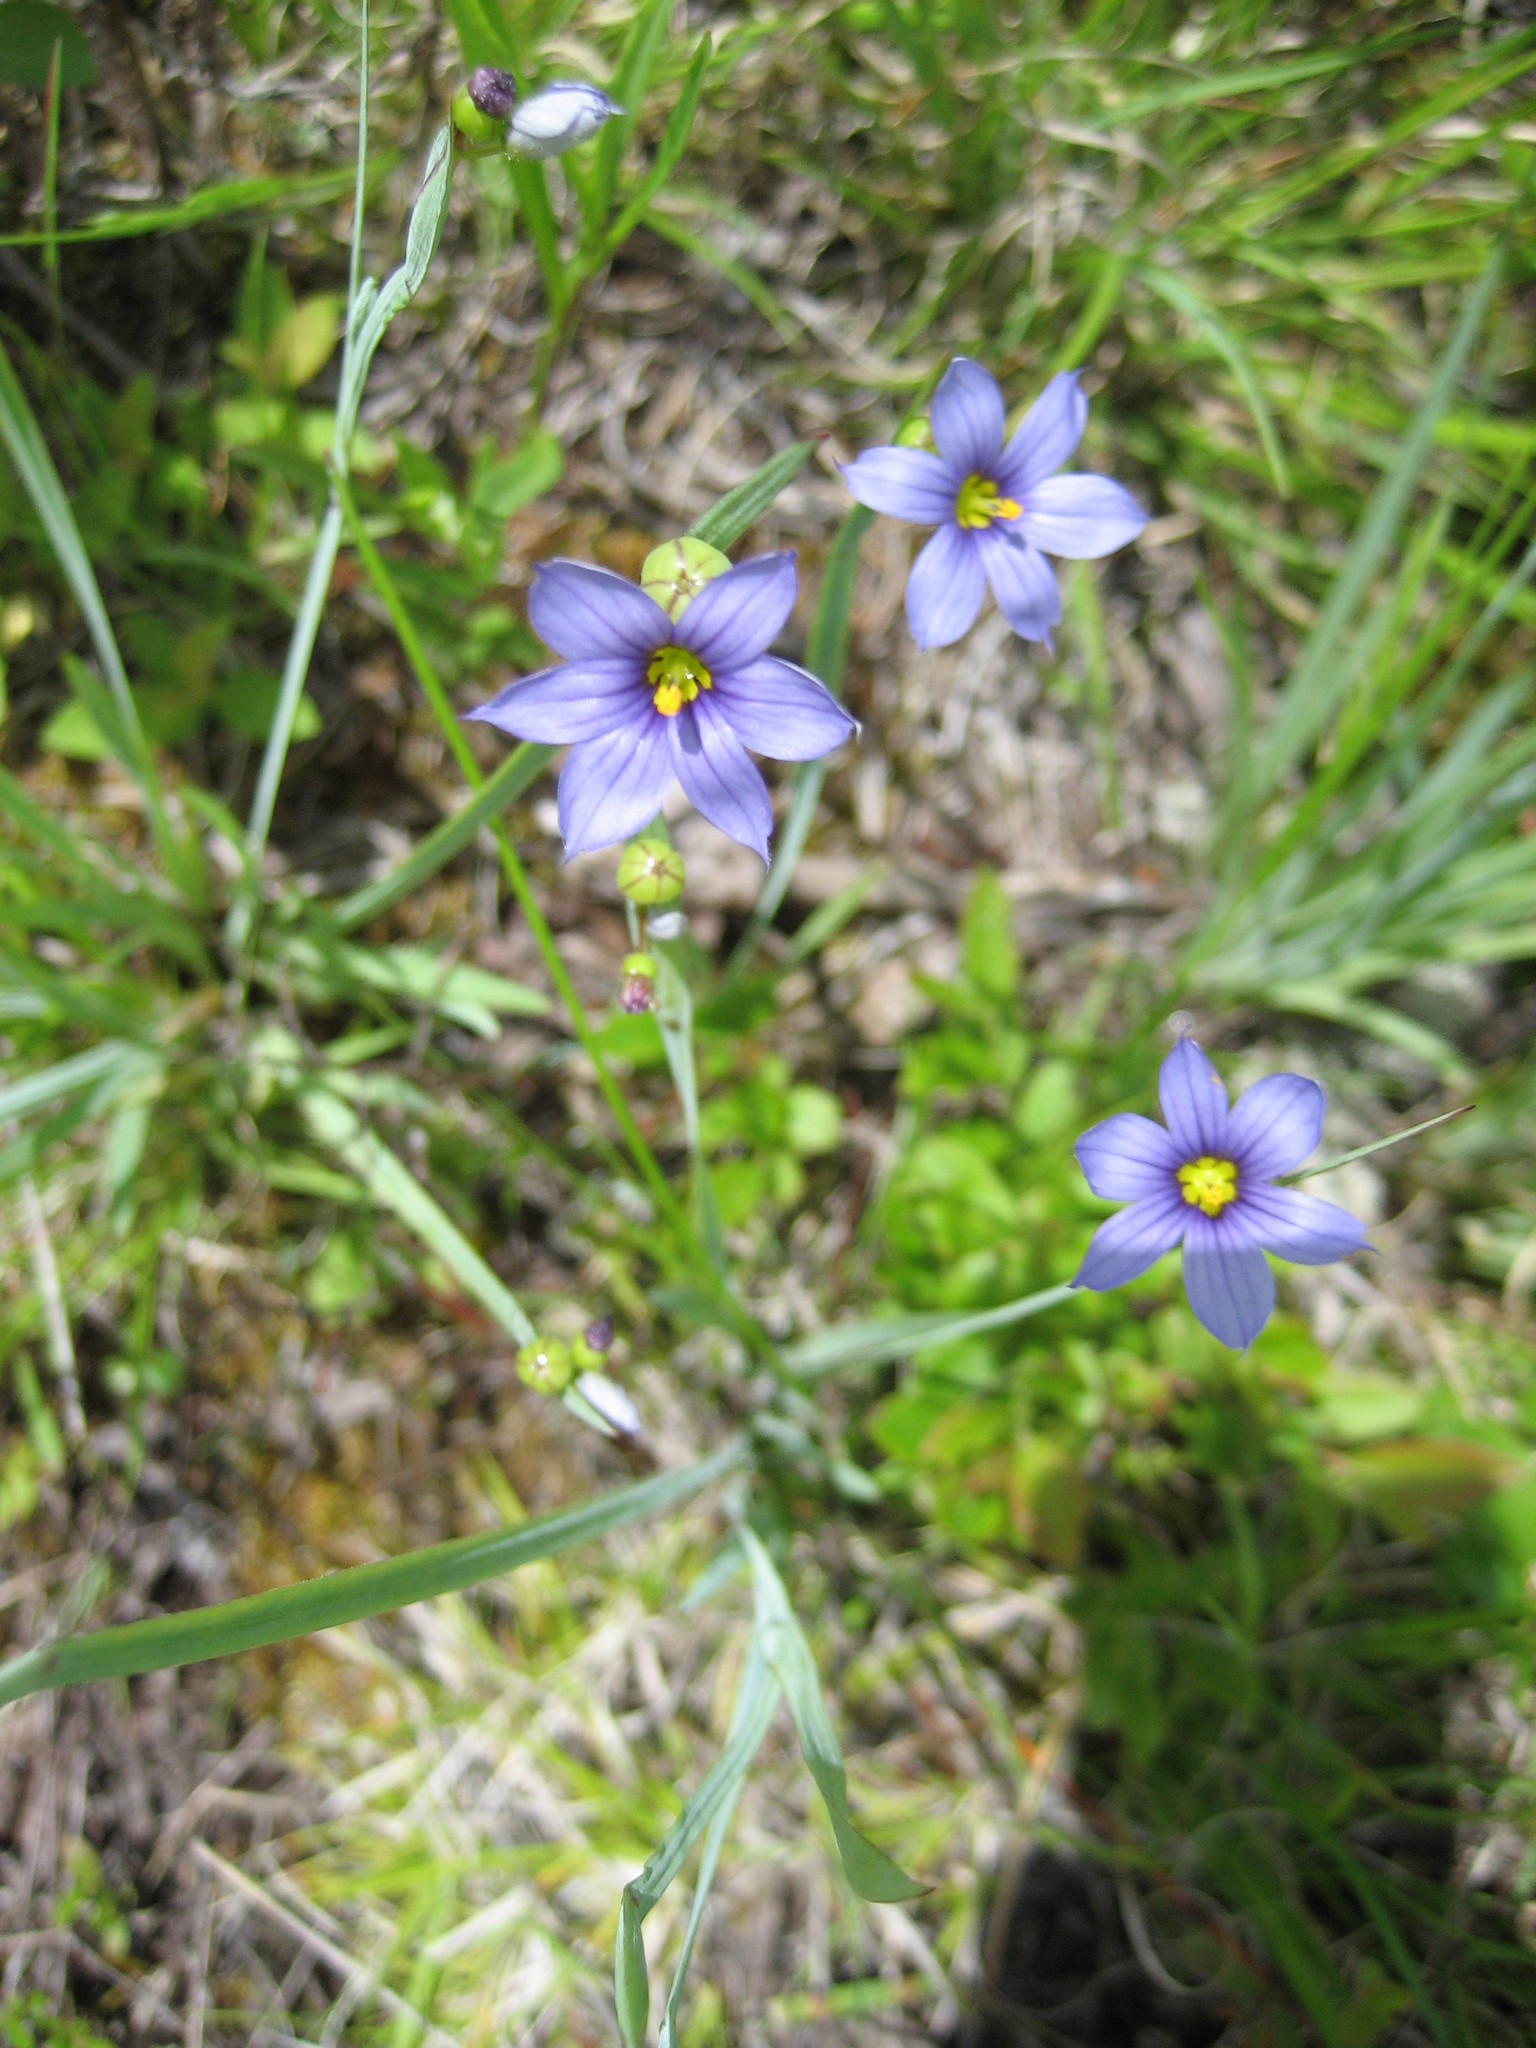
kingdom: Plantae
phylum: Tracheophyta
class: Liliopsida
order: Asparagales
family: Iridaceae
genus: Sisyrinchium
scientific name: Sisyrinchium montanum
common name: American blue-eyed-grass
